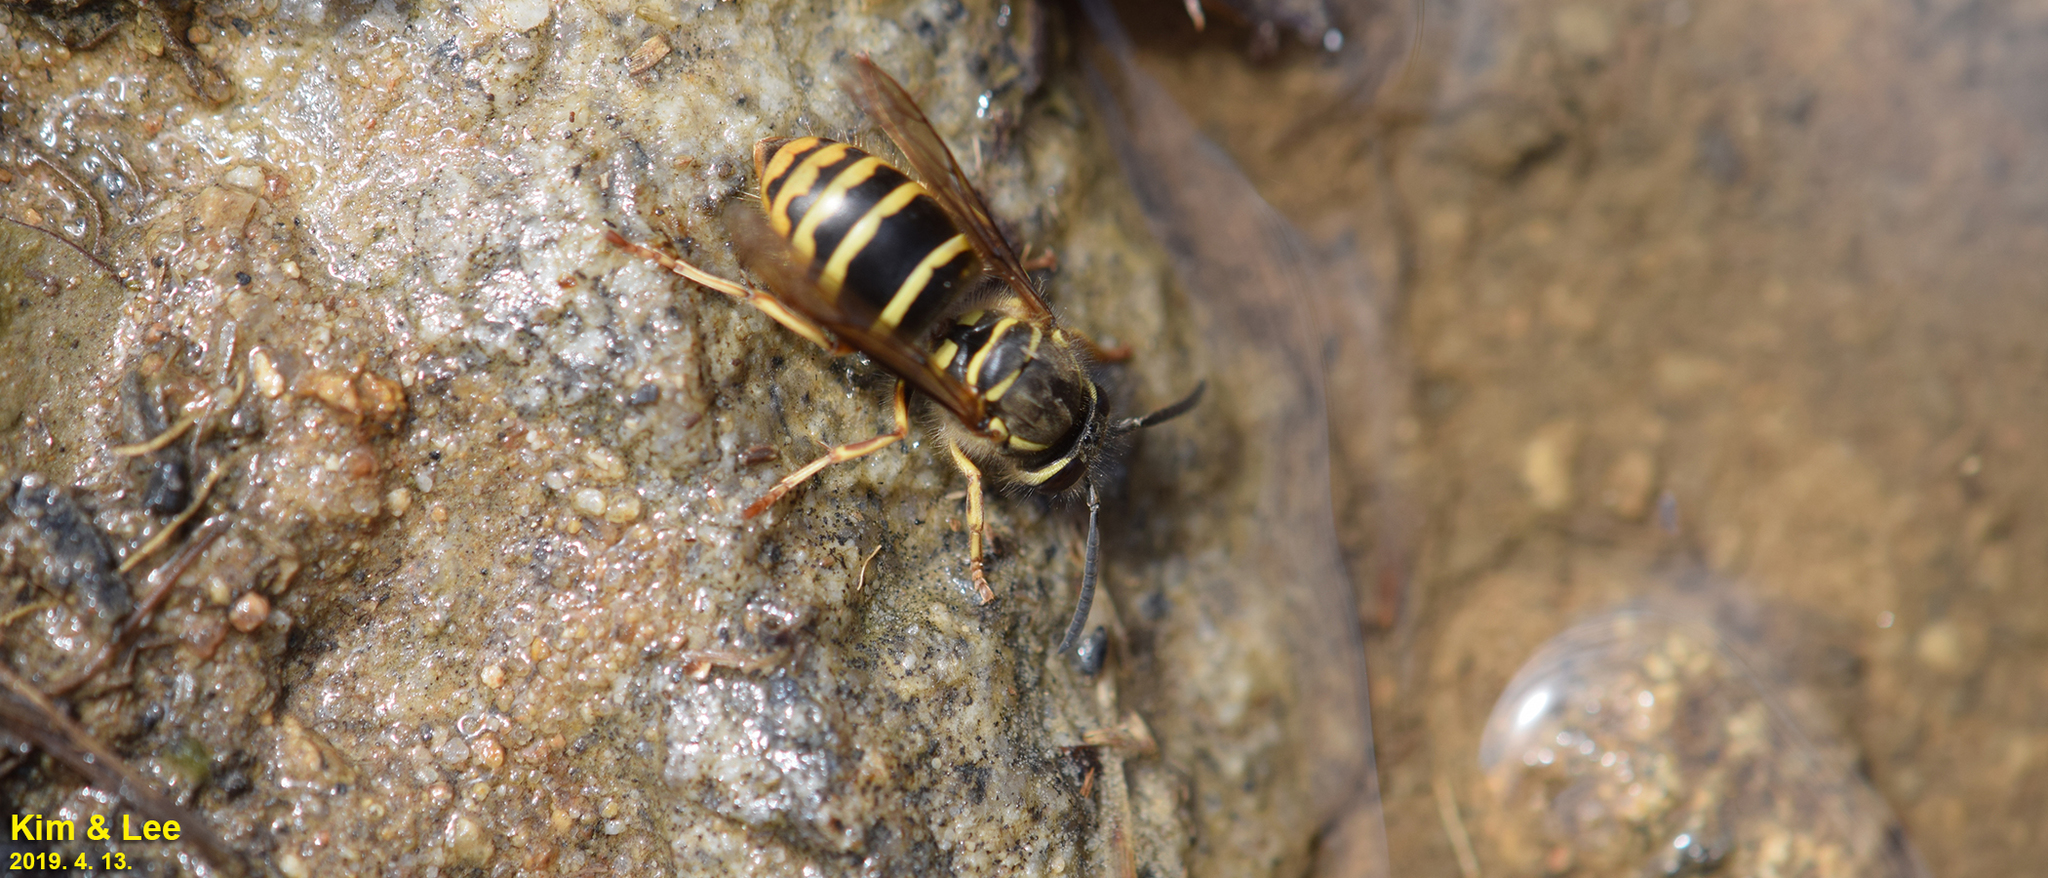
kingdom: Animalia
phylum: Arthropoda
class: Insecta
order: Hymenoptera
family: Vespidae
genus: Vespula
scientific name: Vespula flaviceps
